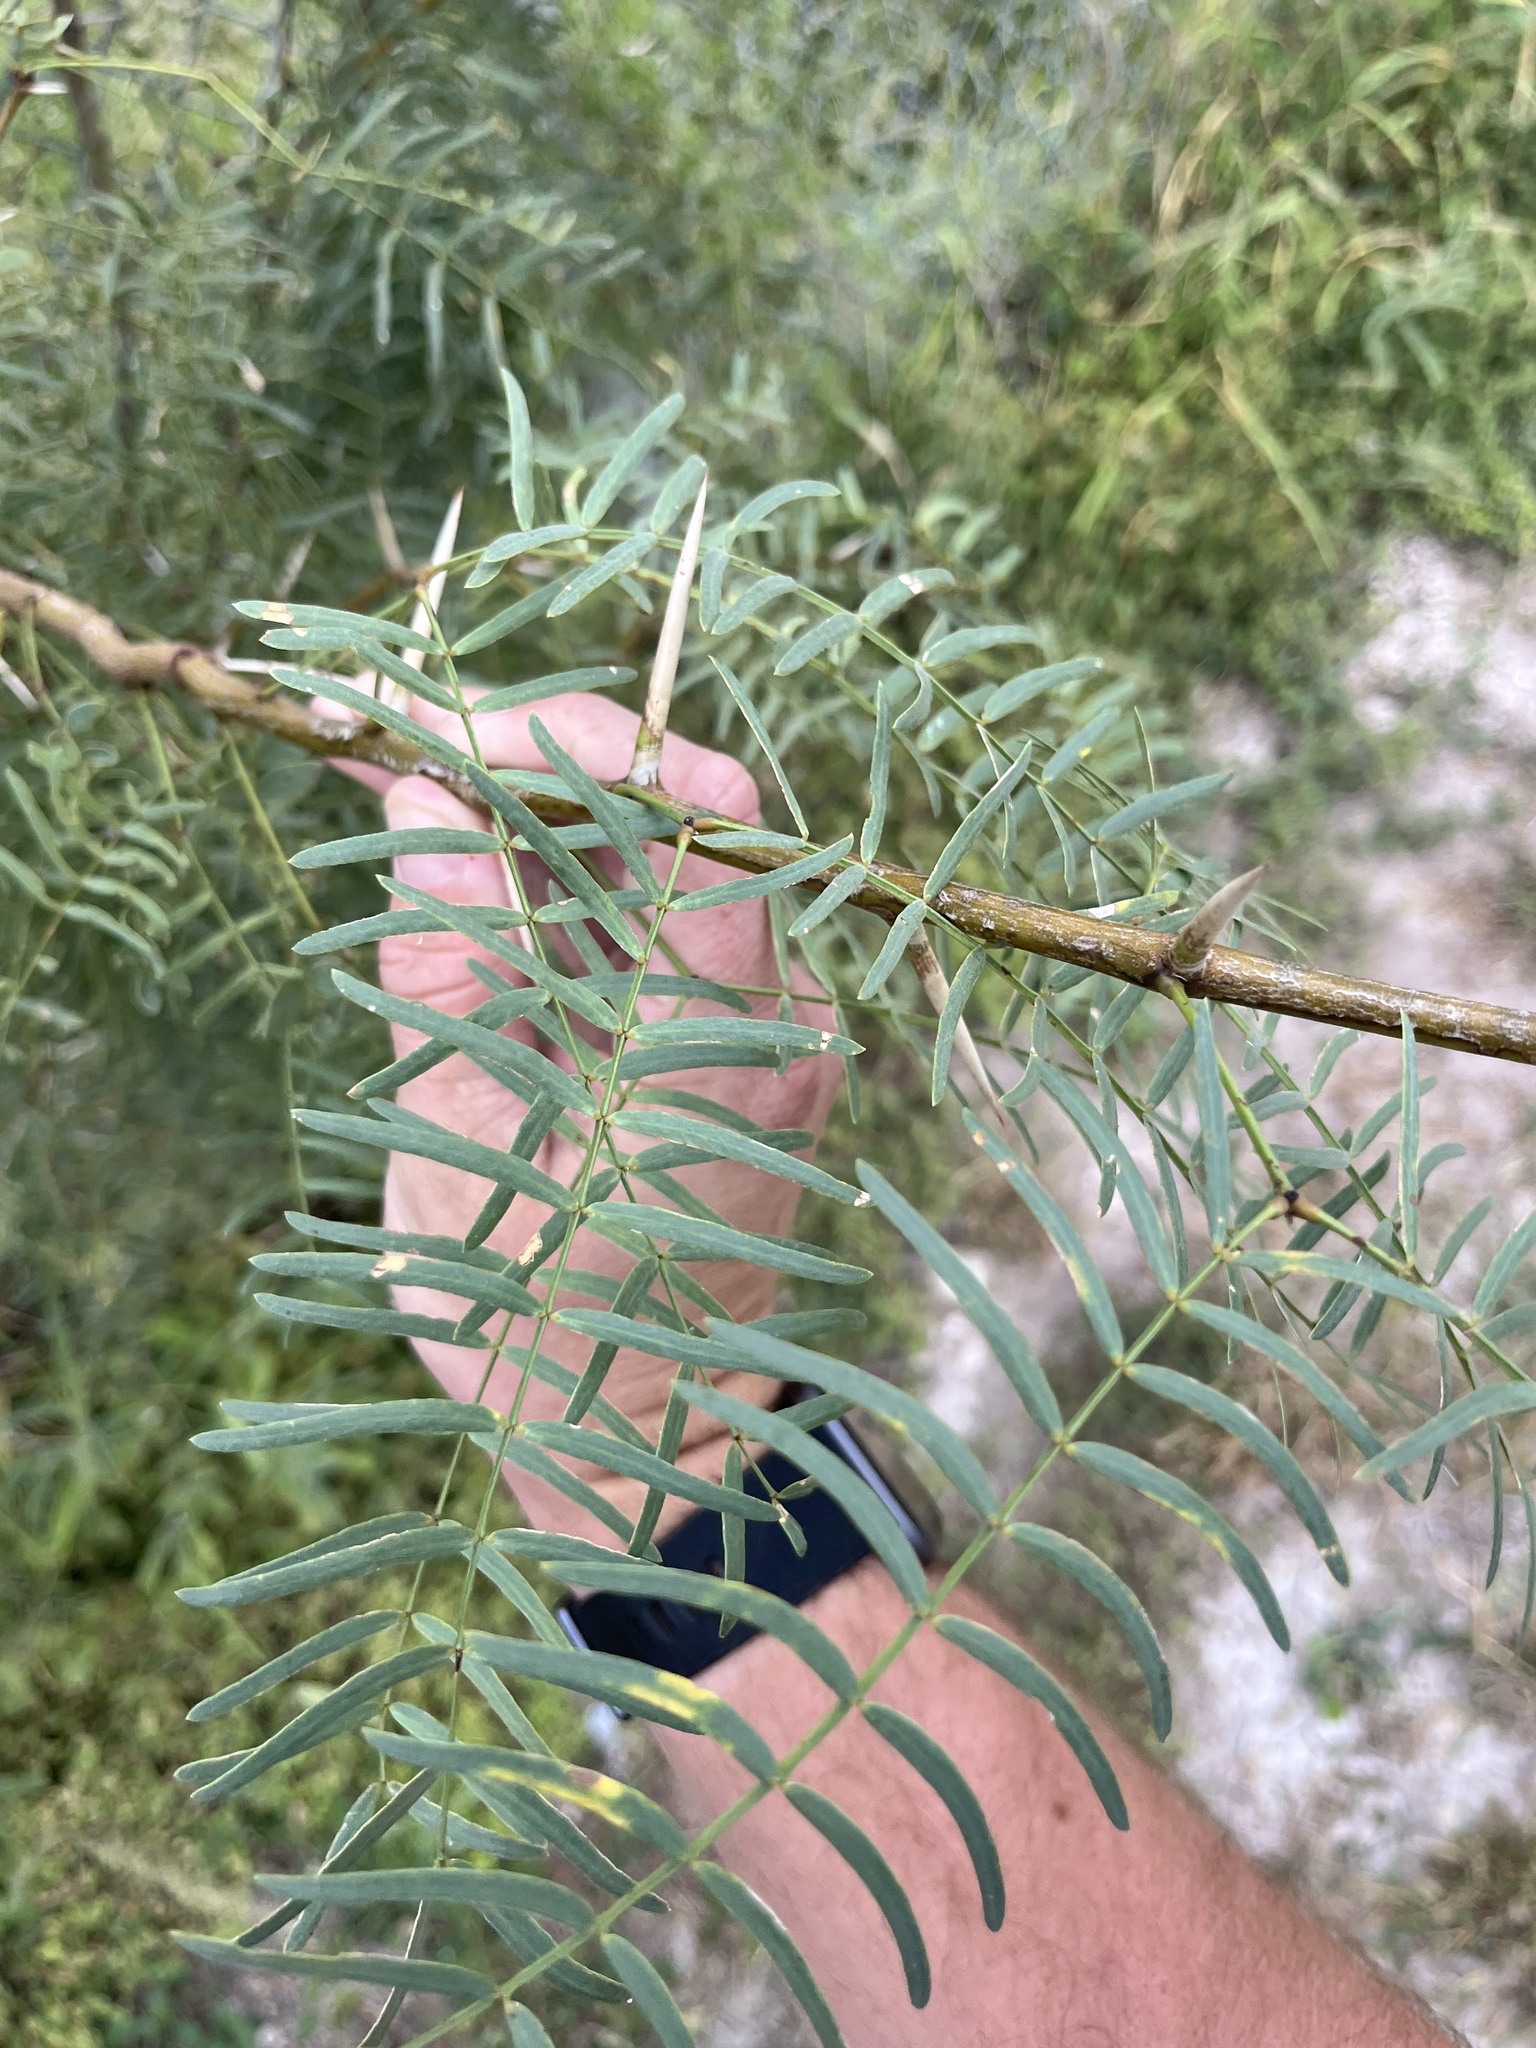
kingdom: Plantae
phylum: Tracheophyta
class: Magnoliopsida
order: Fabales
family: Fabaceae
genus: Prosopis
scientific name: Prosopis glandulosa
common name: Honey mesquite
